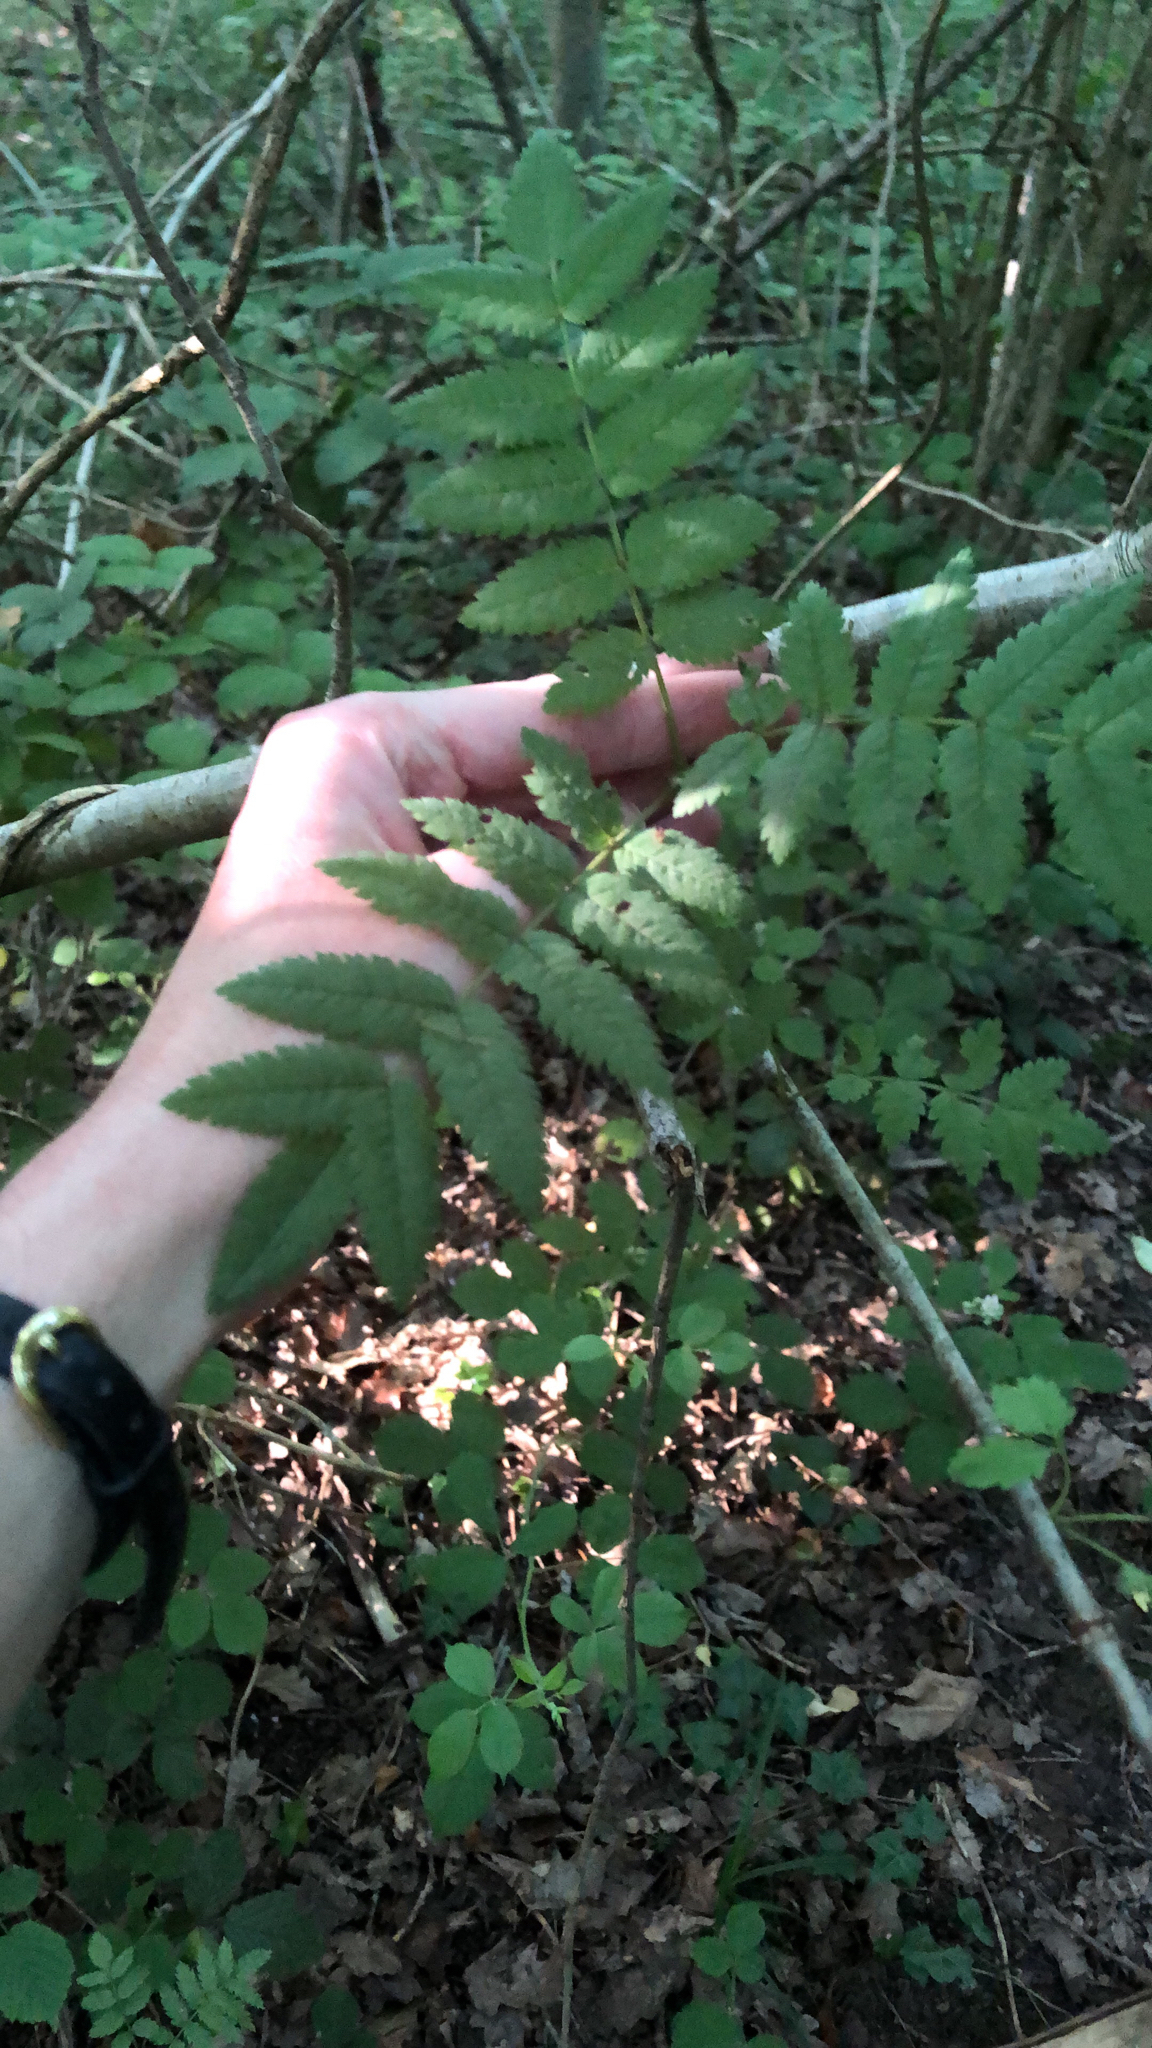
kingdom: Plantae
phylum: Tracheophyta
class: Magnoliopsida
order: Rosales
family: Rosaceae
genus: Sorbus
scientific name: Sorbus aucuparia
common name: Rowan
